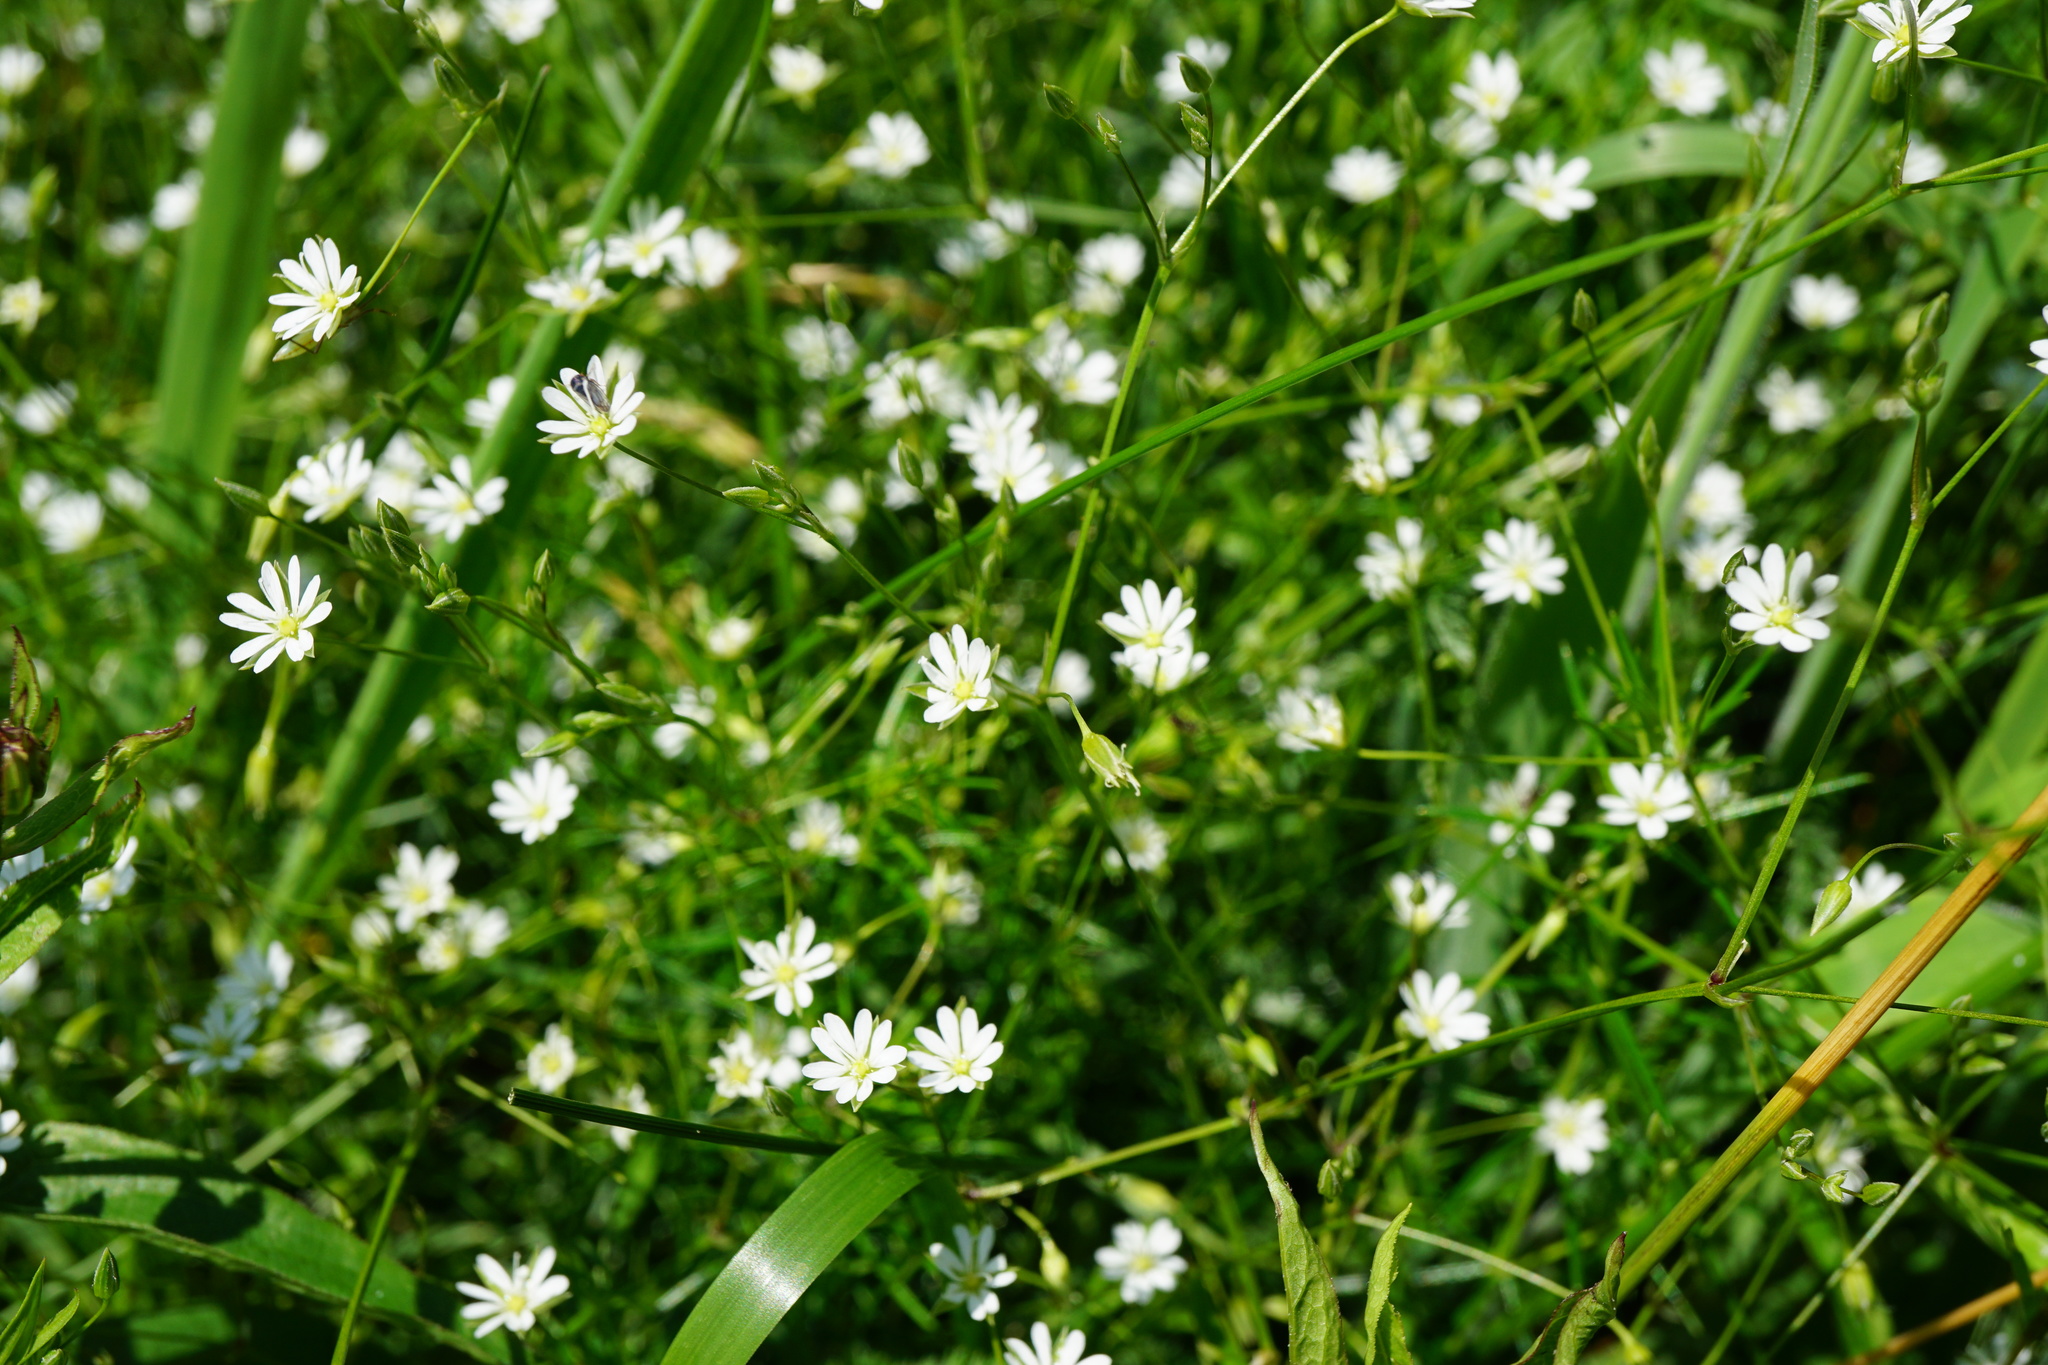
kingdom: Plantae
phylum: Tracheophyta
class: Magnoliopsida
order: Caryophyllales
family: Caryophyllaceae
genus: Stellaria
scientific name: Stellaria graminea
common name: Grass-like starwort
